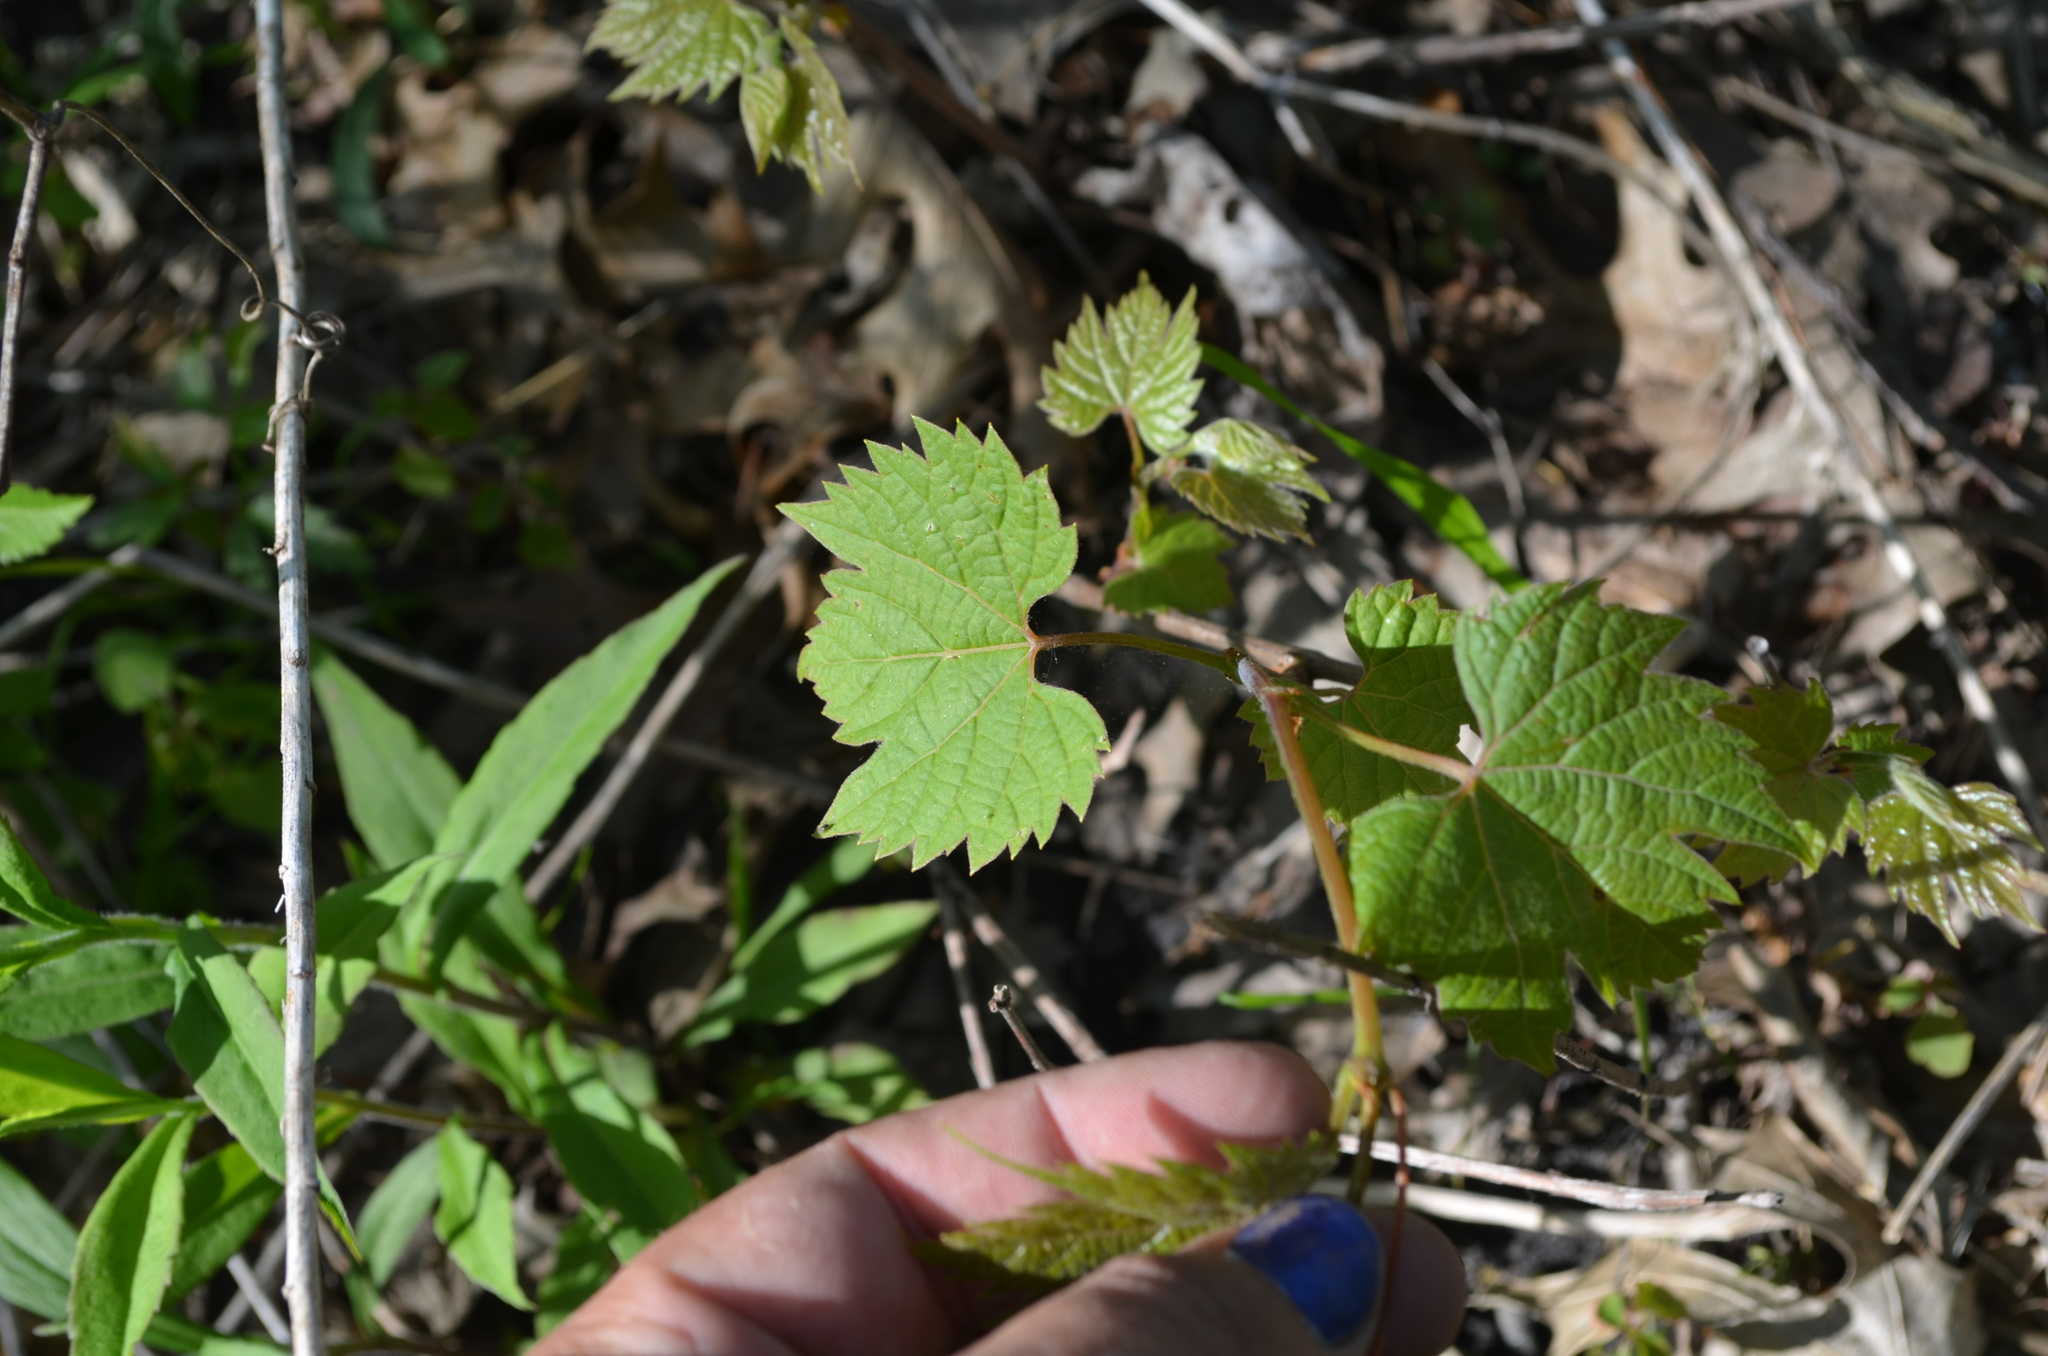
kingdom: Plantae
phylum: Tracheophyta
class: Magnoliopsida
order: Vitales
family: Vitaceae
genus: Vitis
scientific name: Vitis riparia
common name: Frost grape
